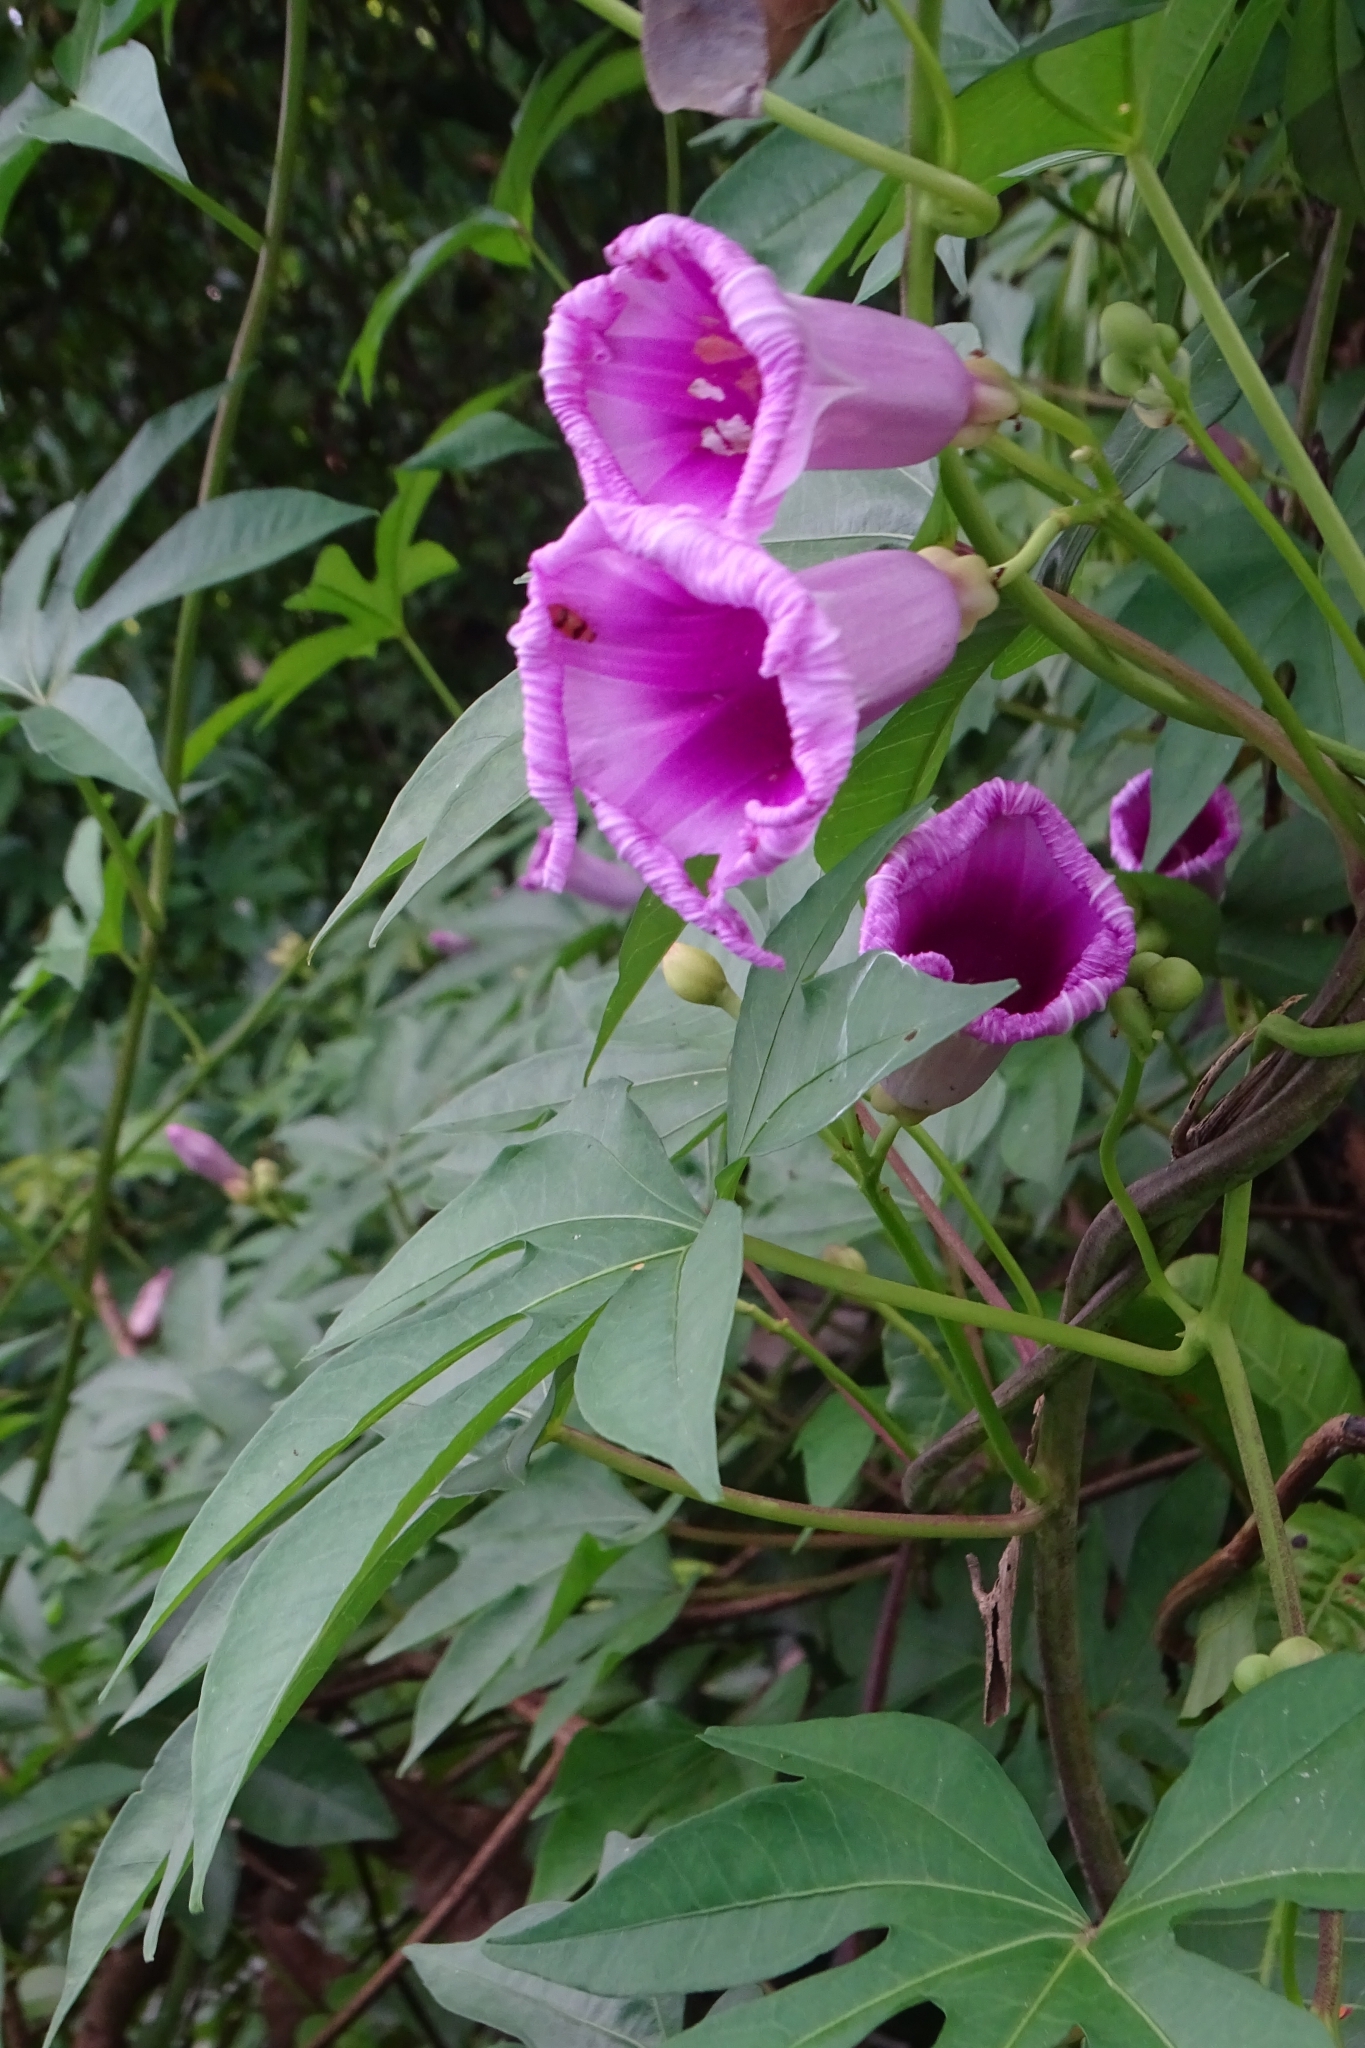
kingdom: Plantae
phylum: Tracheophyta
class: Magnoliopsida
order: Solanales
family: Convolvulaceae
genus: Ipomoea
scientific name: Ipomoea mauritiana
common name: Mauritanian convolvulus
